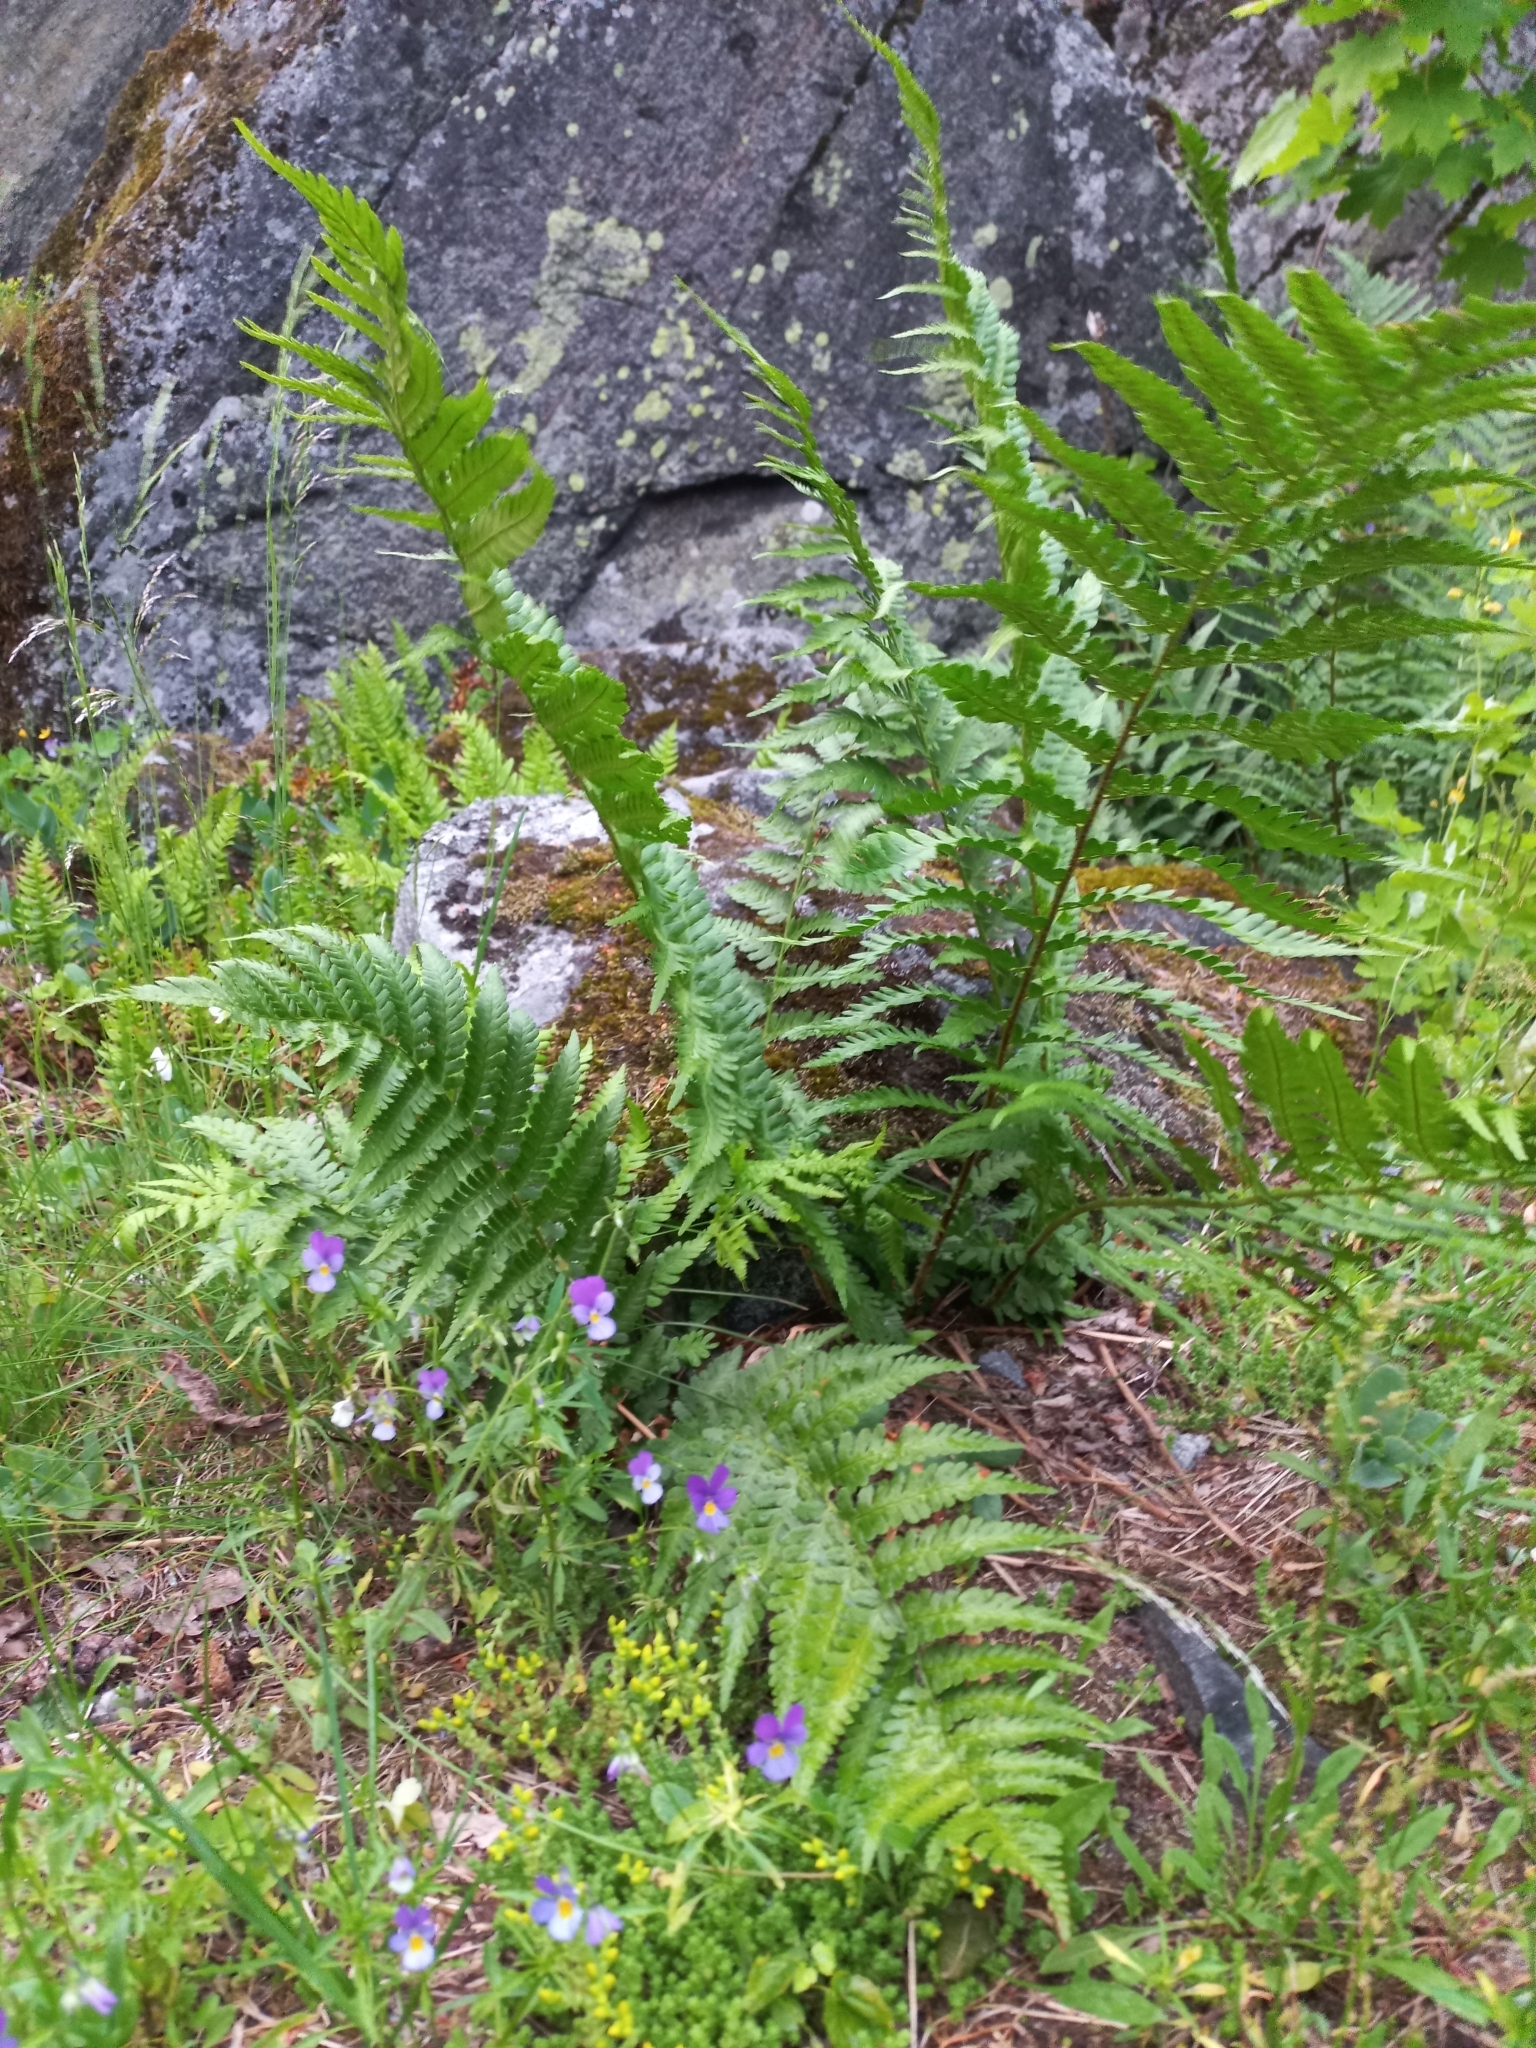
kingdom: Plantae
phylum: Tracheophyta
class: Polypodiopsida
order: Polypodiales
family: Dryopteridaceae
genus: Dryopteris
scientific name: Dryopteris filix-mas
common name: Male fern
